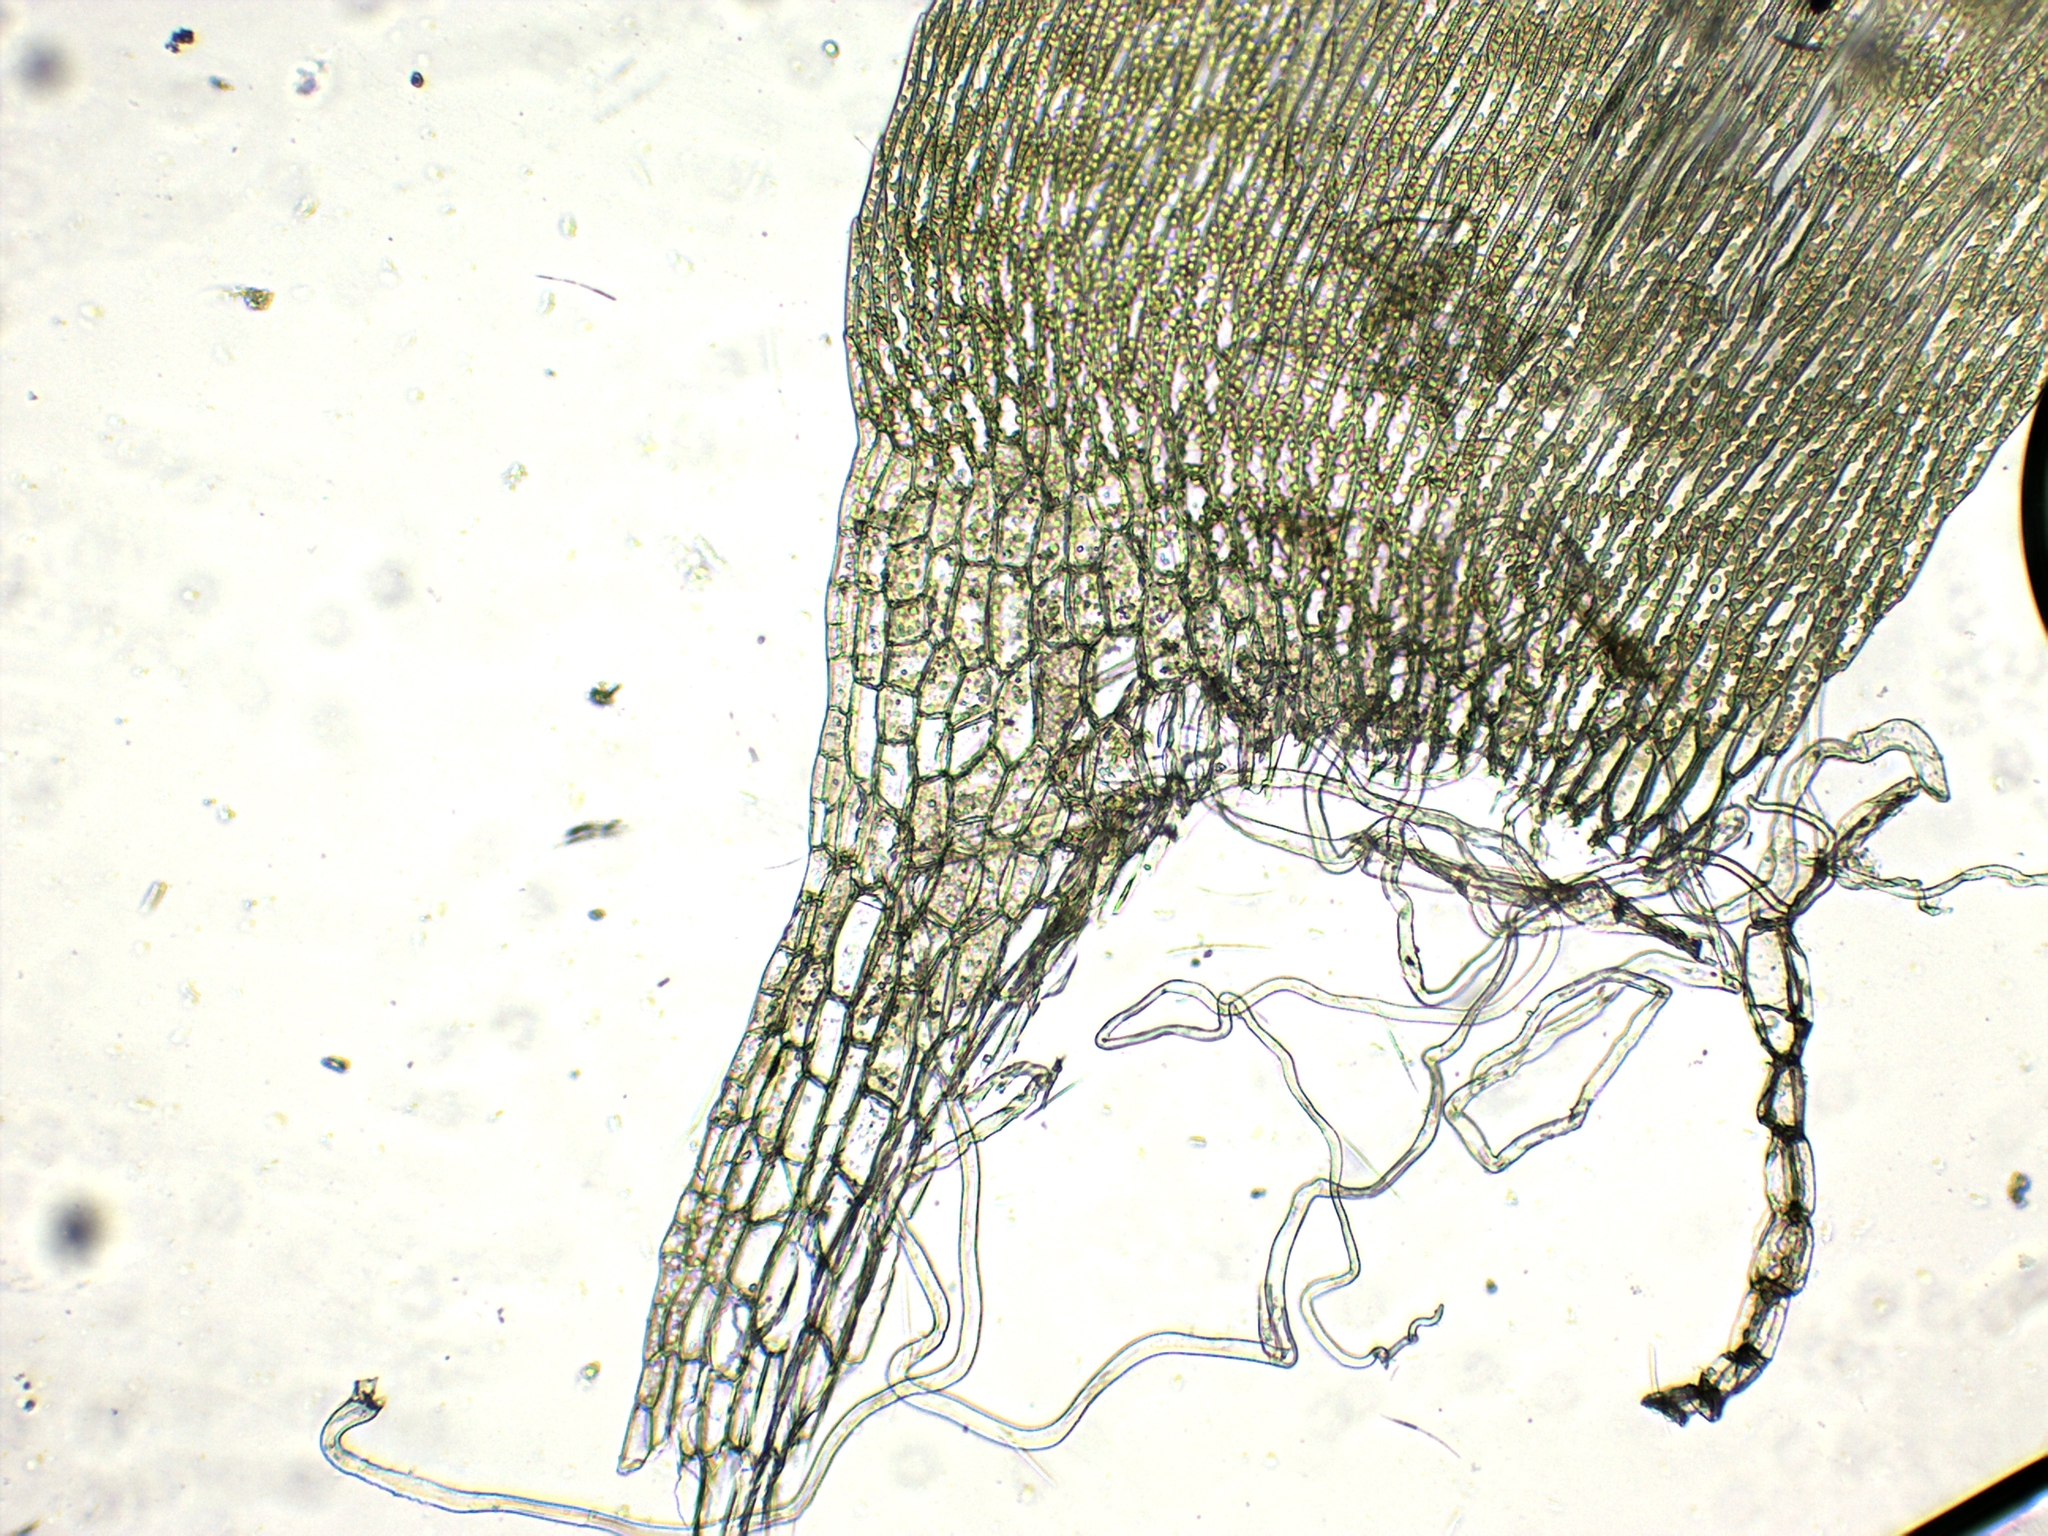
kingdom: Plantae
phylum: Bryophyta
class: Bryopsida
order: Hypnales
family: Brachytheciaceae
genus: Cirriphyllum
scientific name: Cirriphyllum piliferum
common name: Hair-pointed moss
